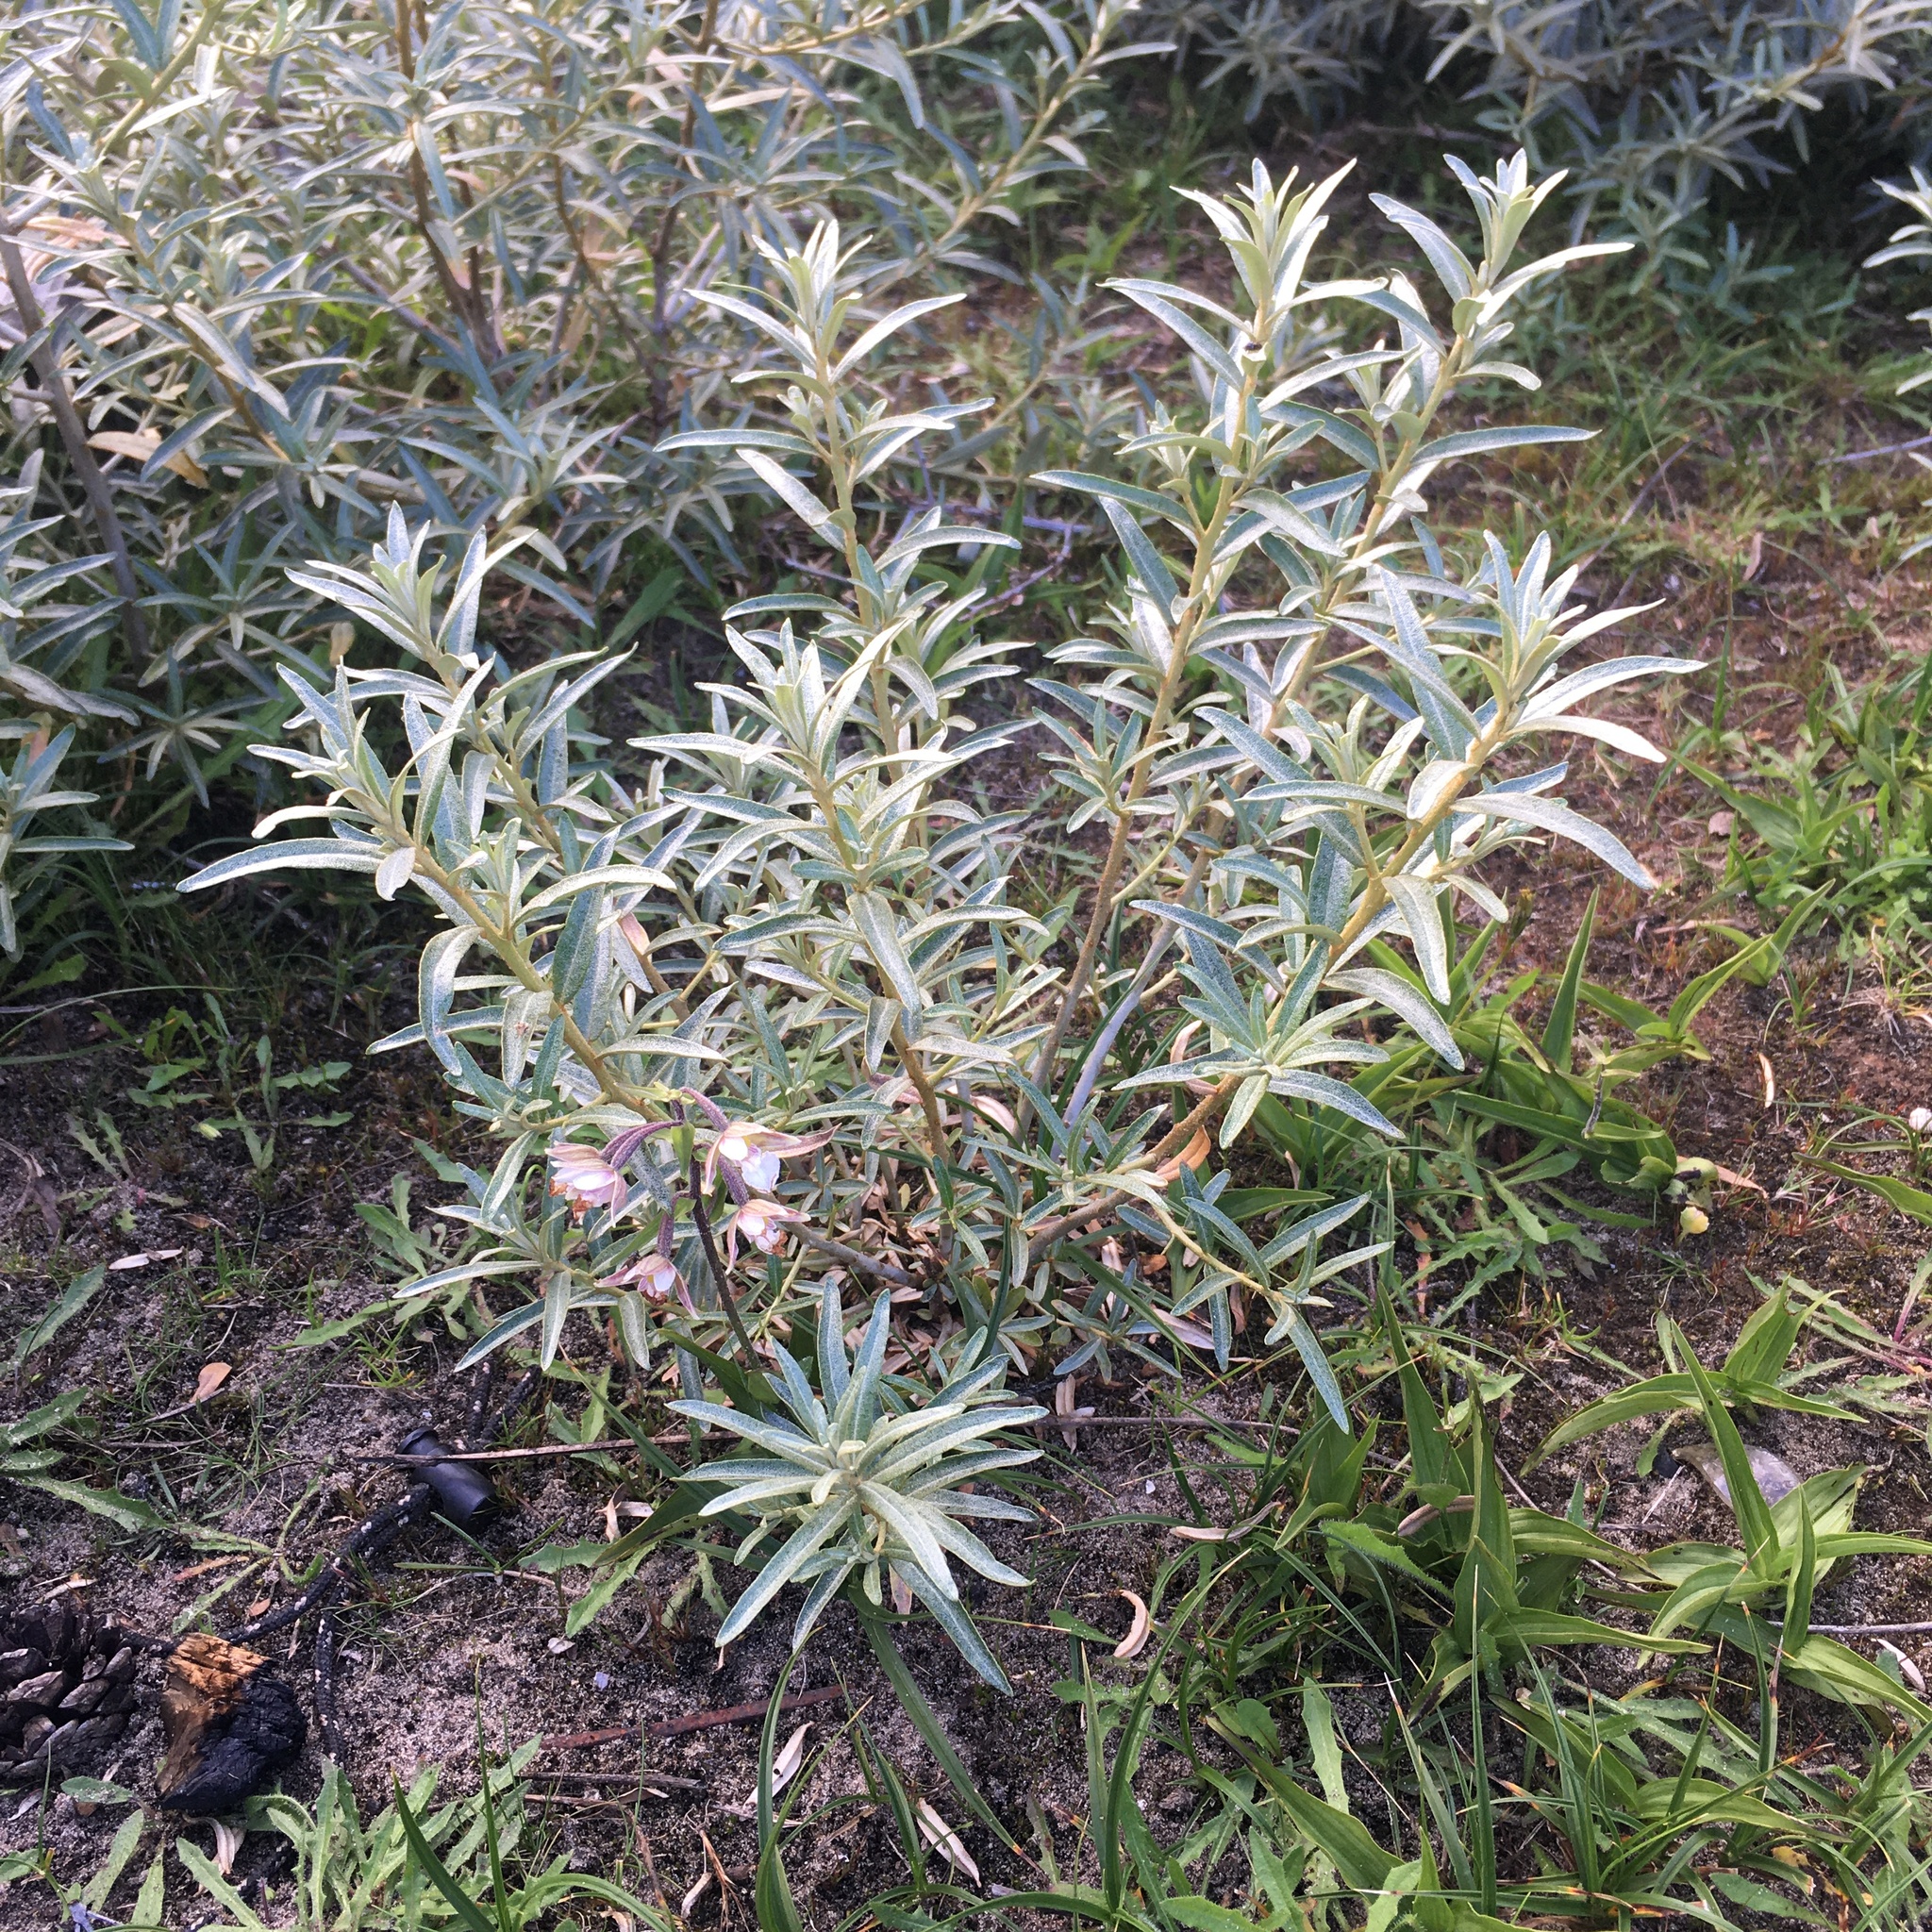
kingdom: Plantae
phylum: Tracheophyta
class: Magnoliopsida
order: Rosales
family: Elaeagnaceae
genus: Hippophae
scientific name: Hippophae rhamnoides
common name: Sea-buckthorn
